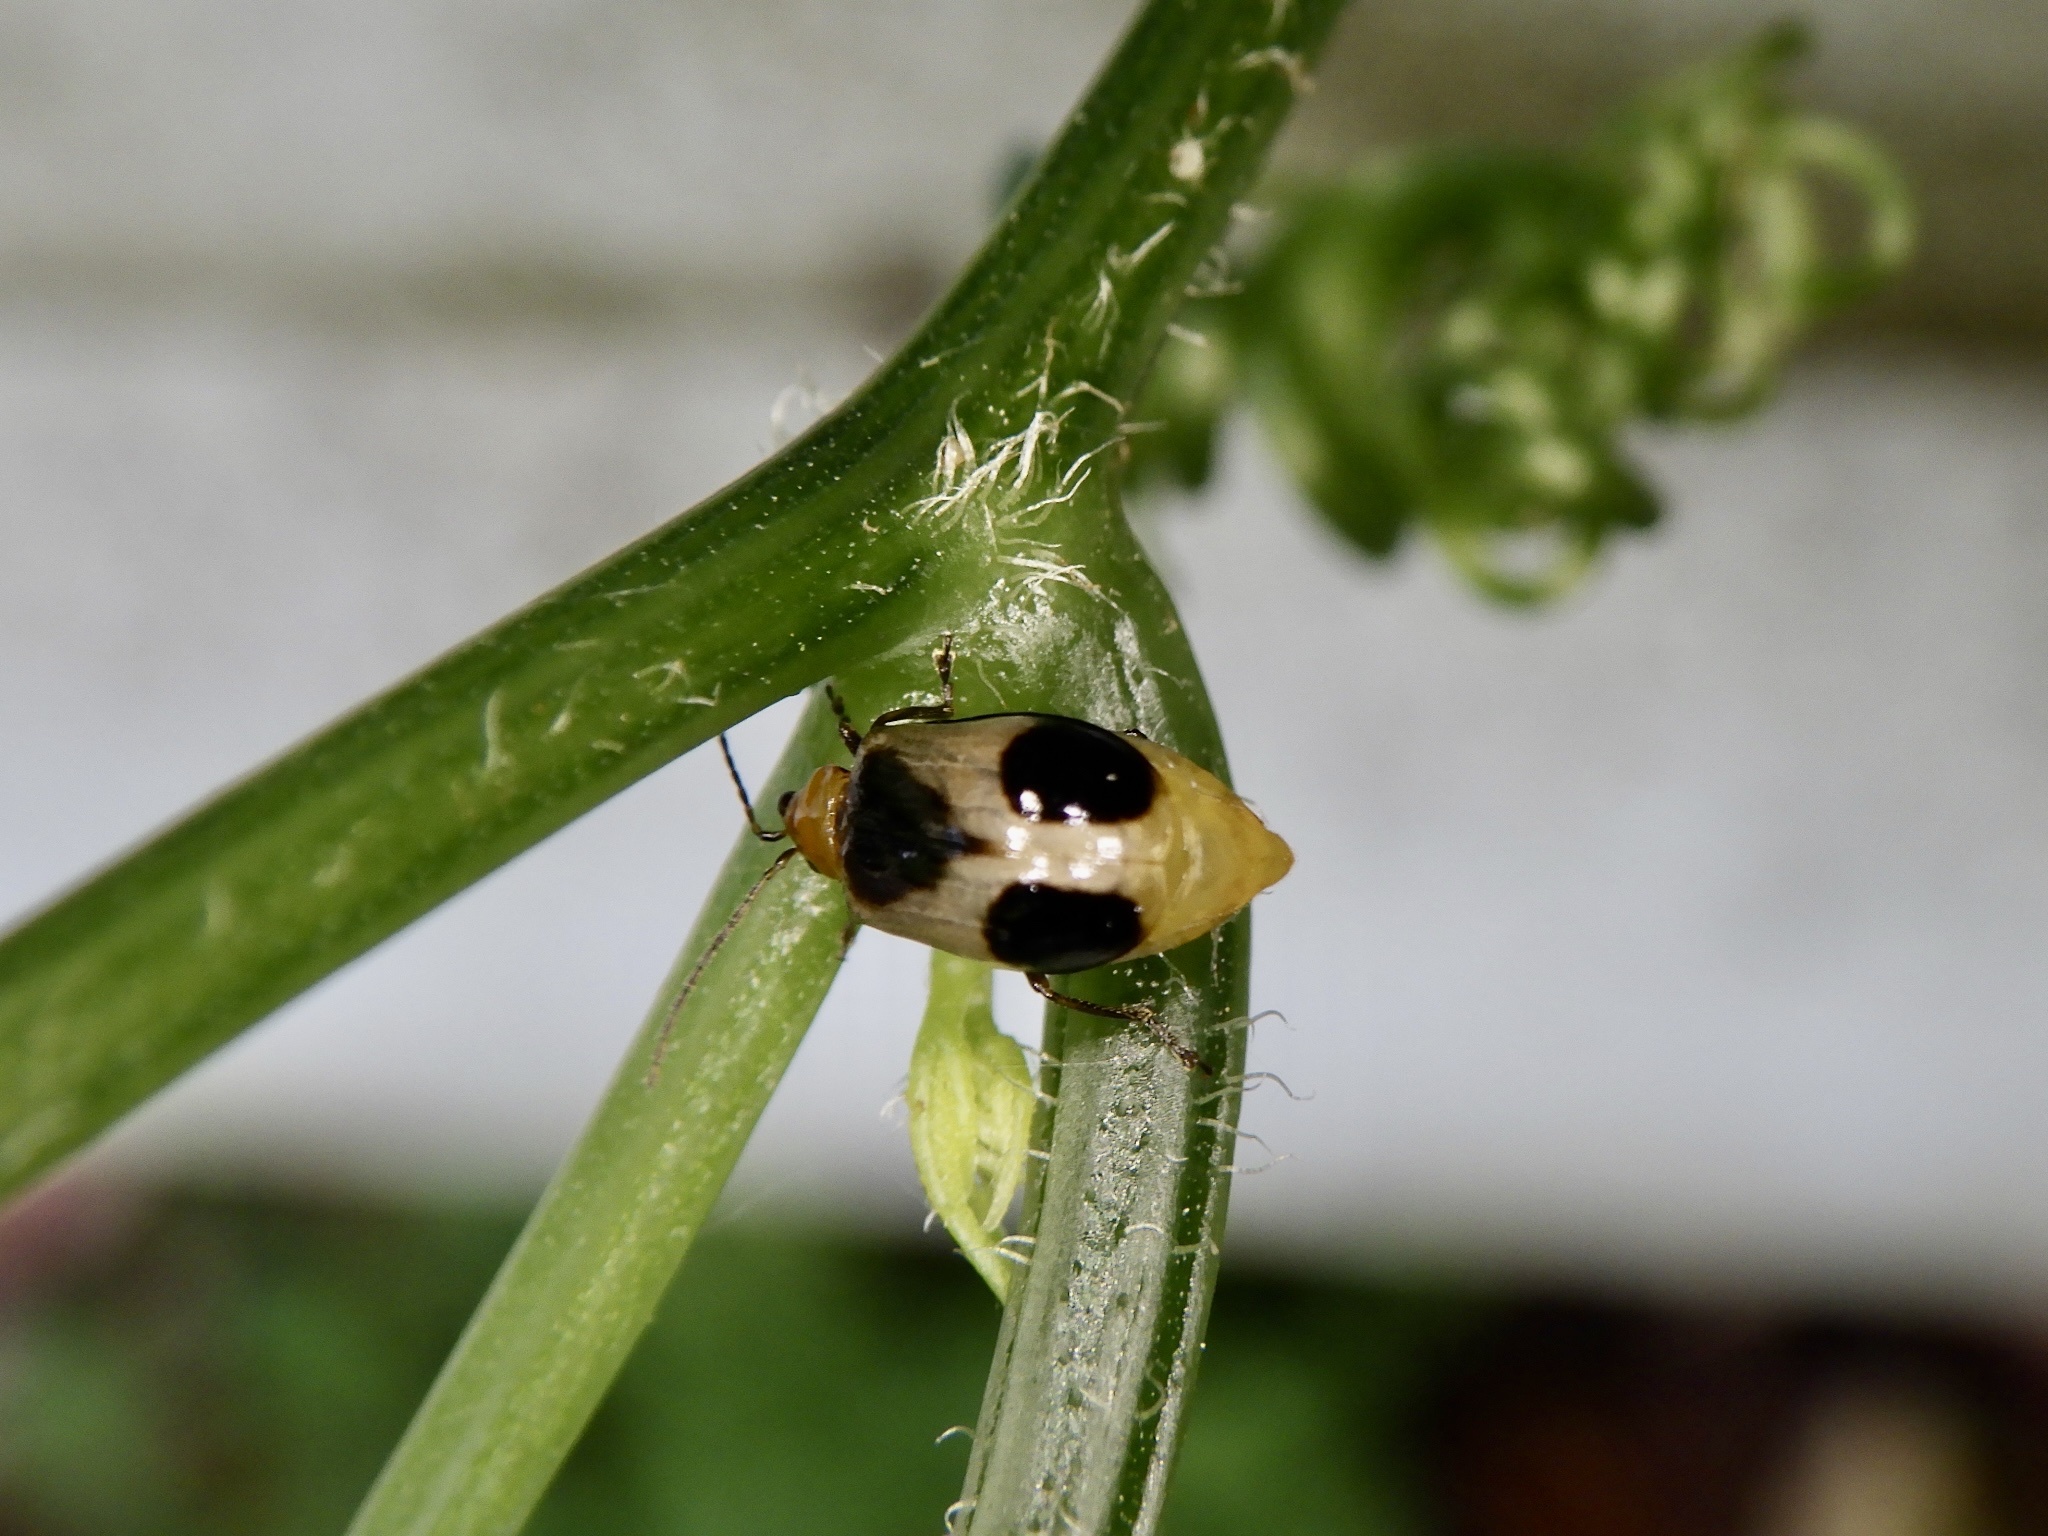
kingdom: Animalia
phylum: Arthropoda
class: Insecta
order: Coleoptera
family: Chrysomelidae
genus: Paridea
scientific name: Paridea angulicollis
